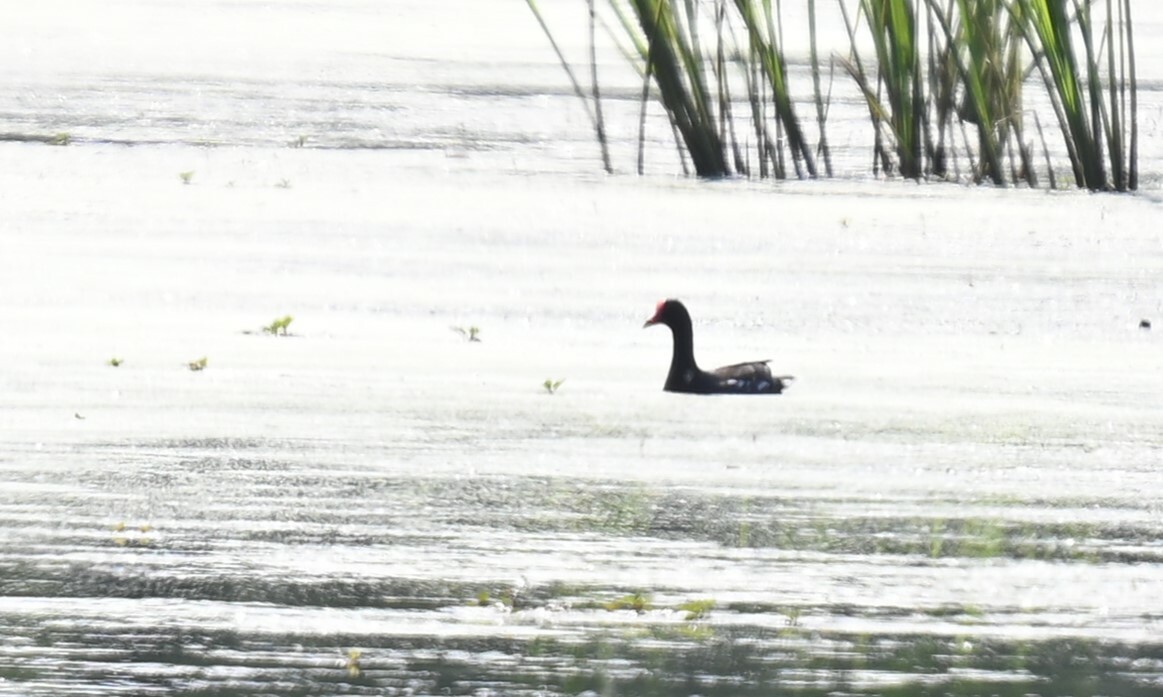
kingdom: Animalia
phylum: Chordata
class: Aves
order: Gruiformes
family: Rallidae
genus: Gallinula
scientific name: Gallinula chloropus
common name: Common moorhen
